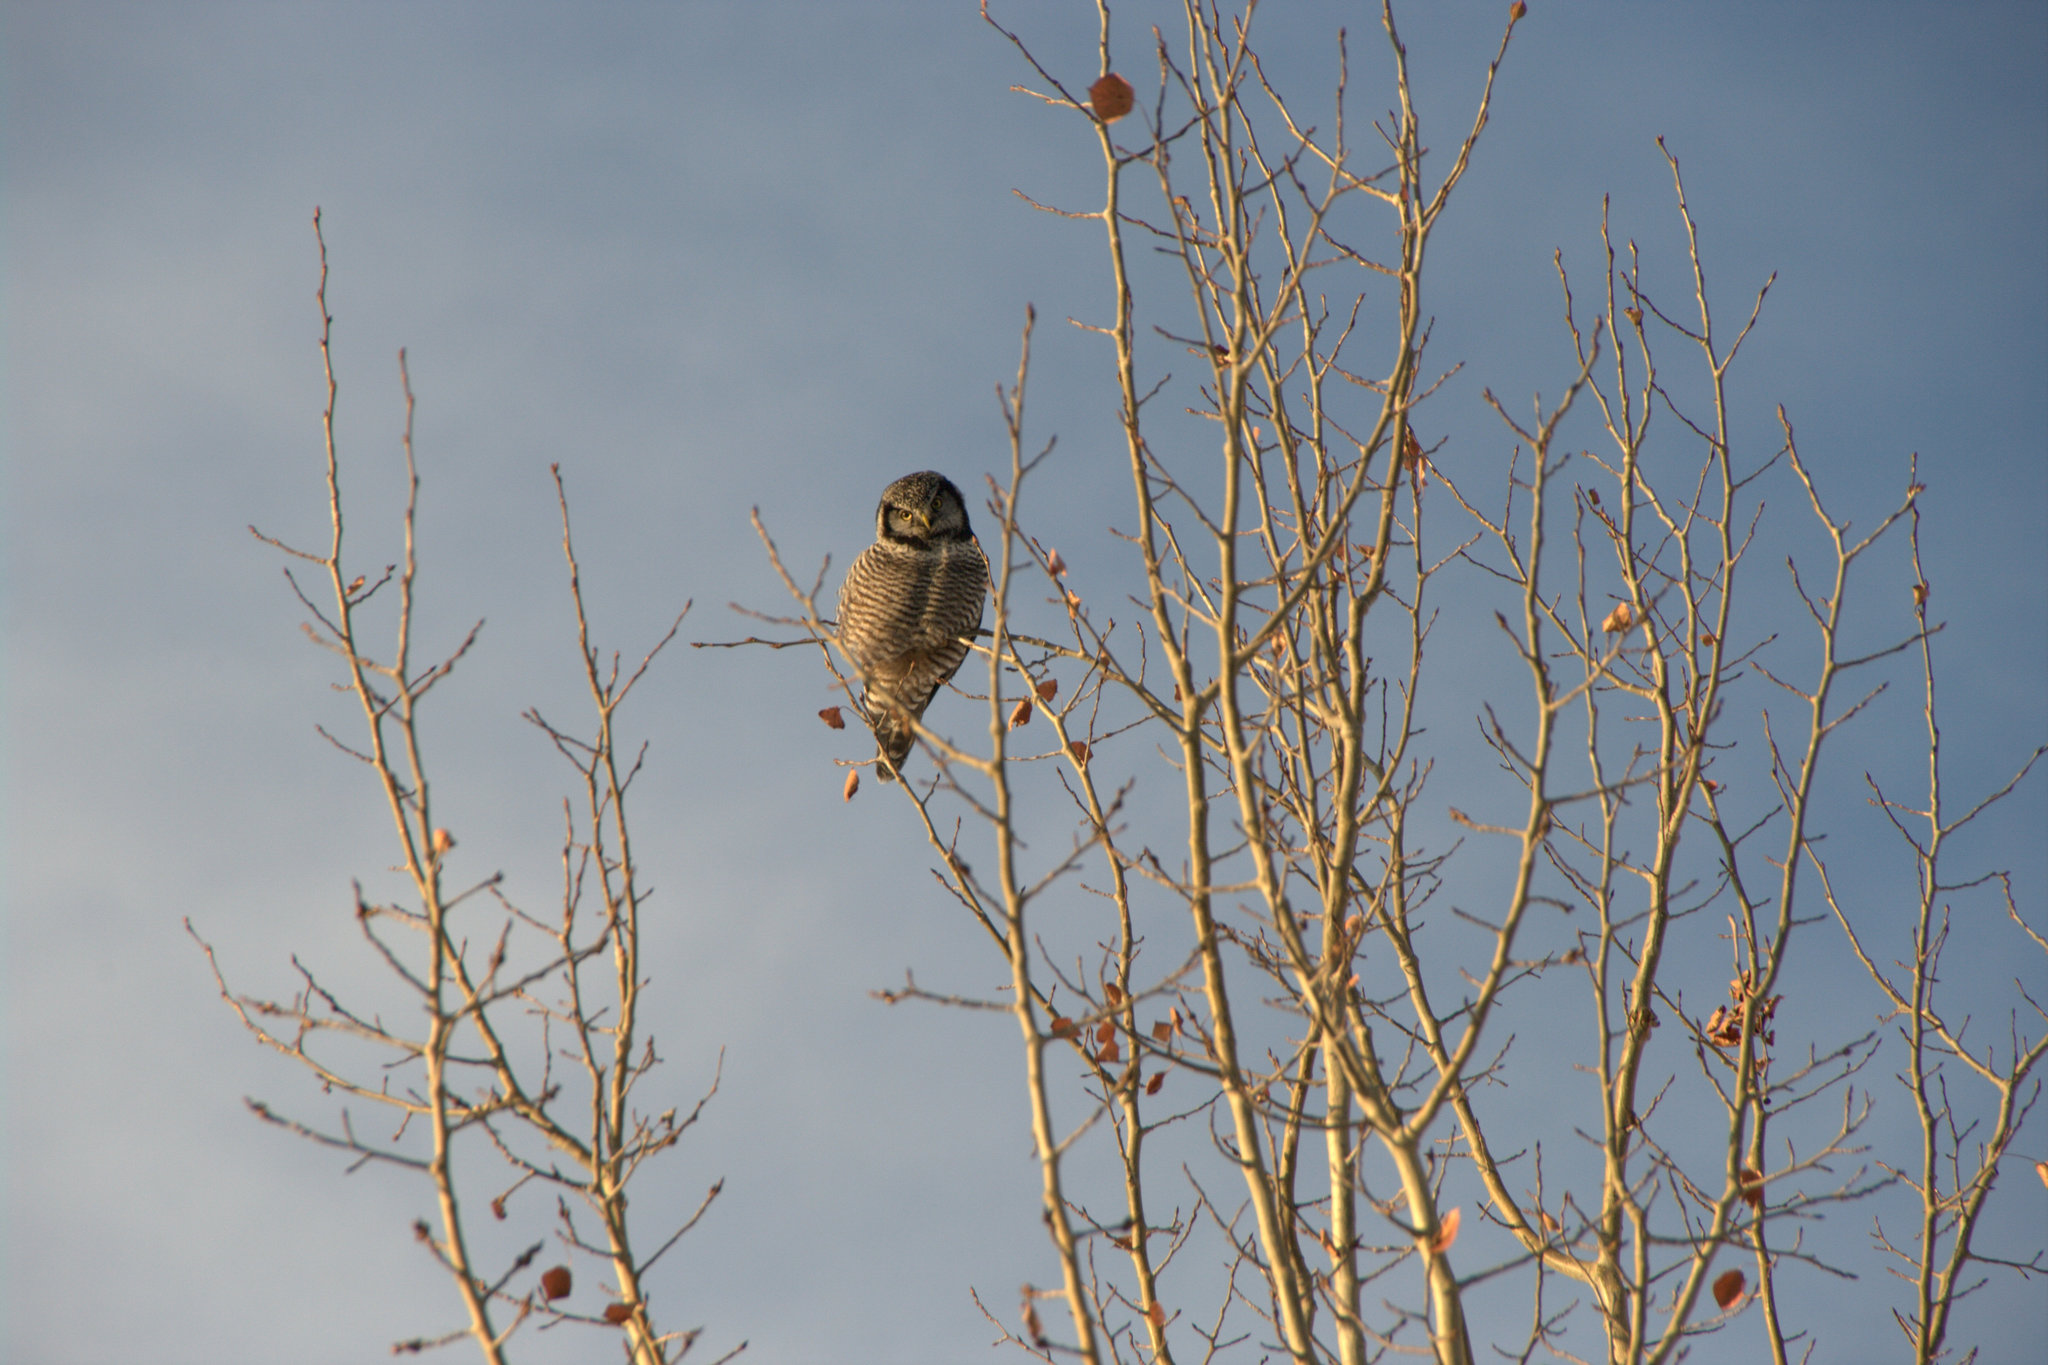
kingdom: Animalia
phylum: Chordata
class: Aves
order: Strigiformes
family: Strigidae
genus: Surnia
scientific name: Surnia ulula
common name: Northern hawk-owl
